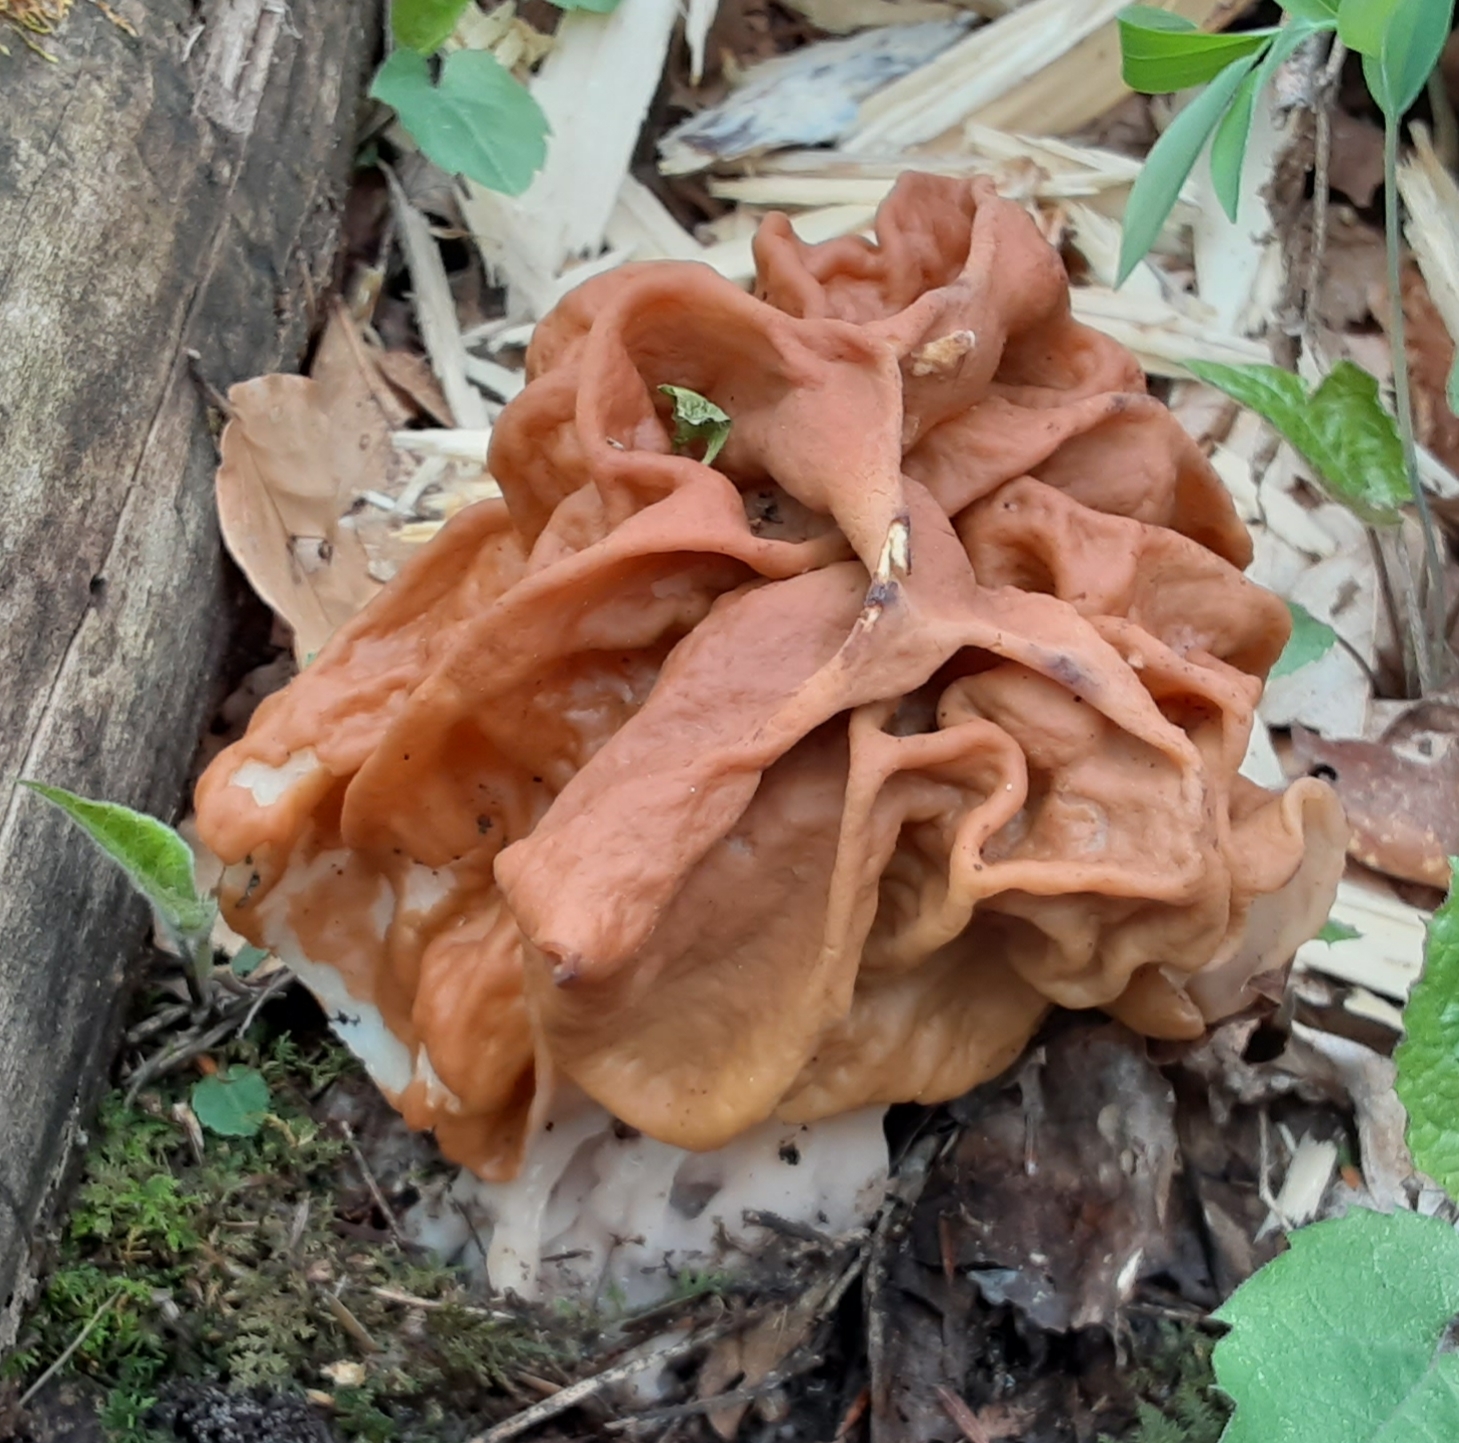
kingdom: Fungi
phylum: Ascomycota
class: Pezizomycetes
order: Pezizales
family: Discinaceae
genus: Gyromitra
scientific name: Gyromitra korfii
